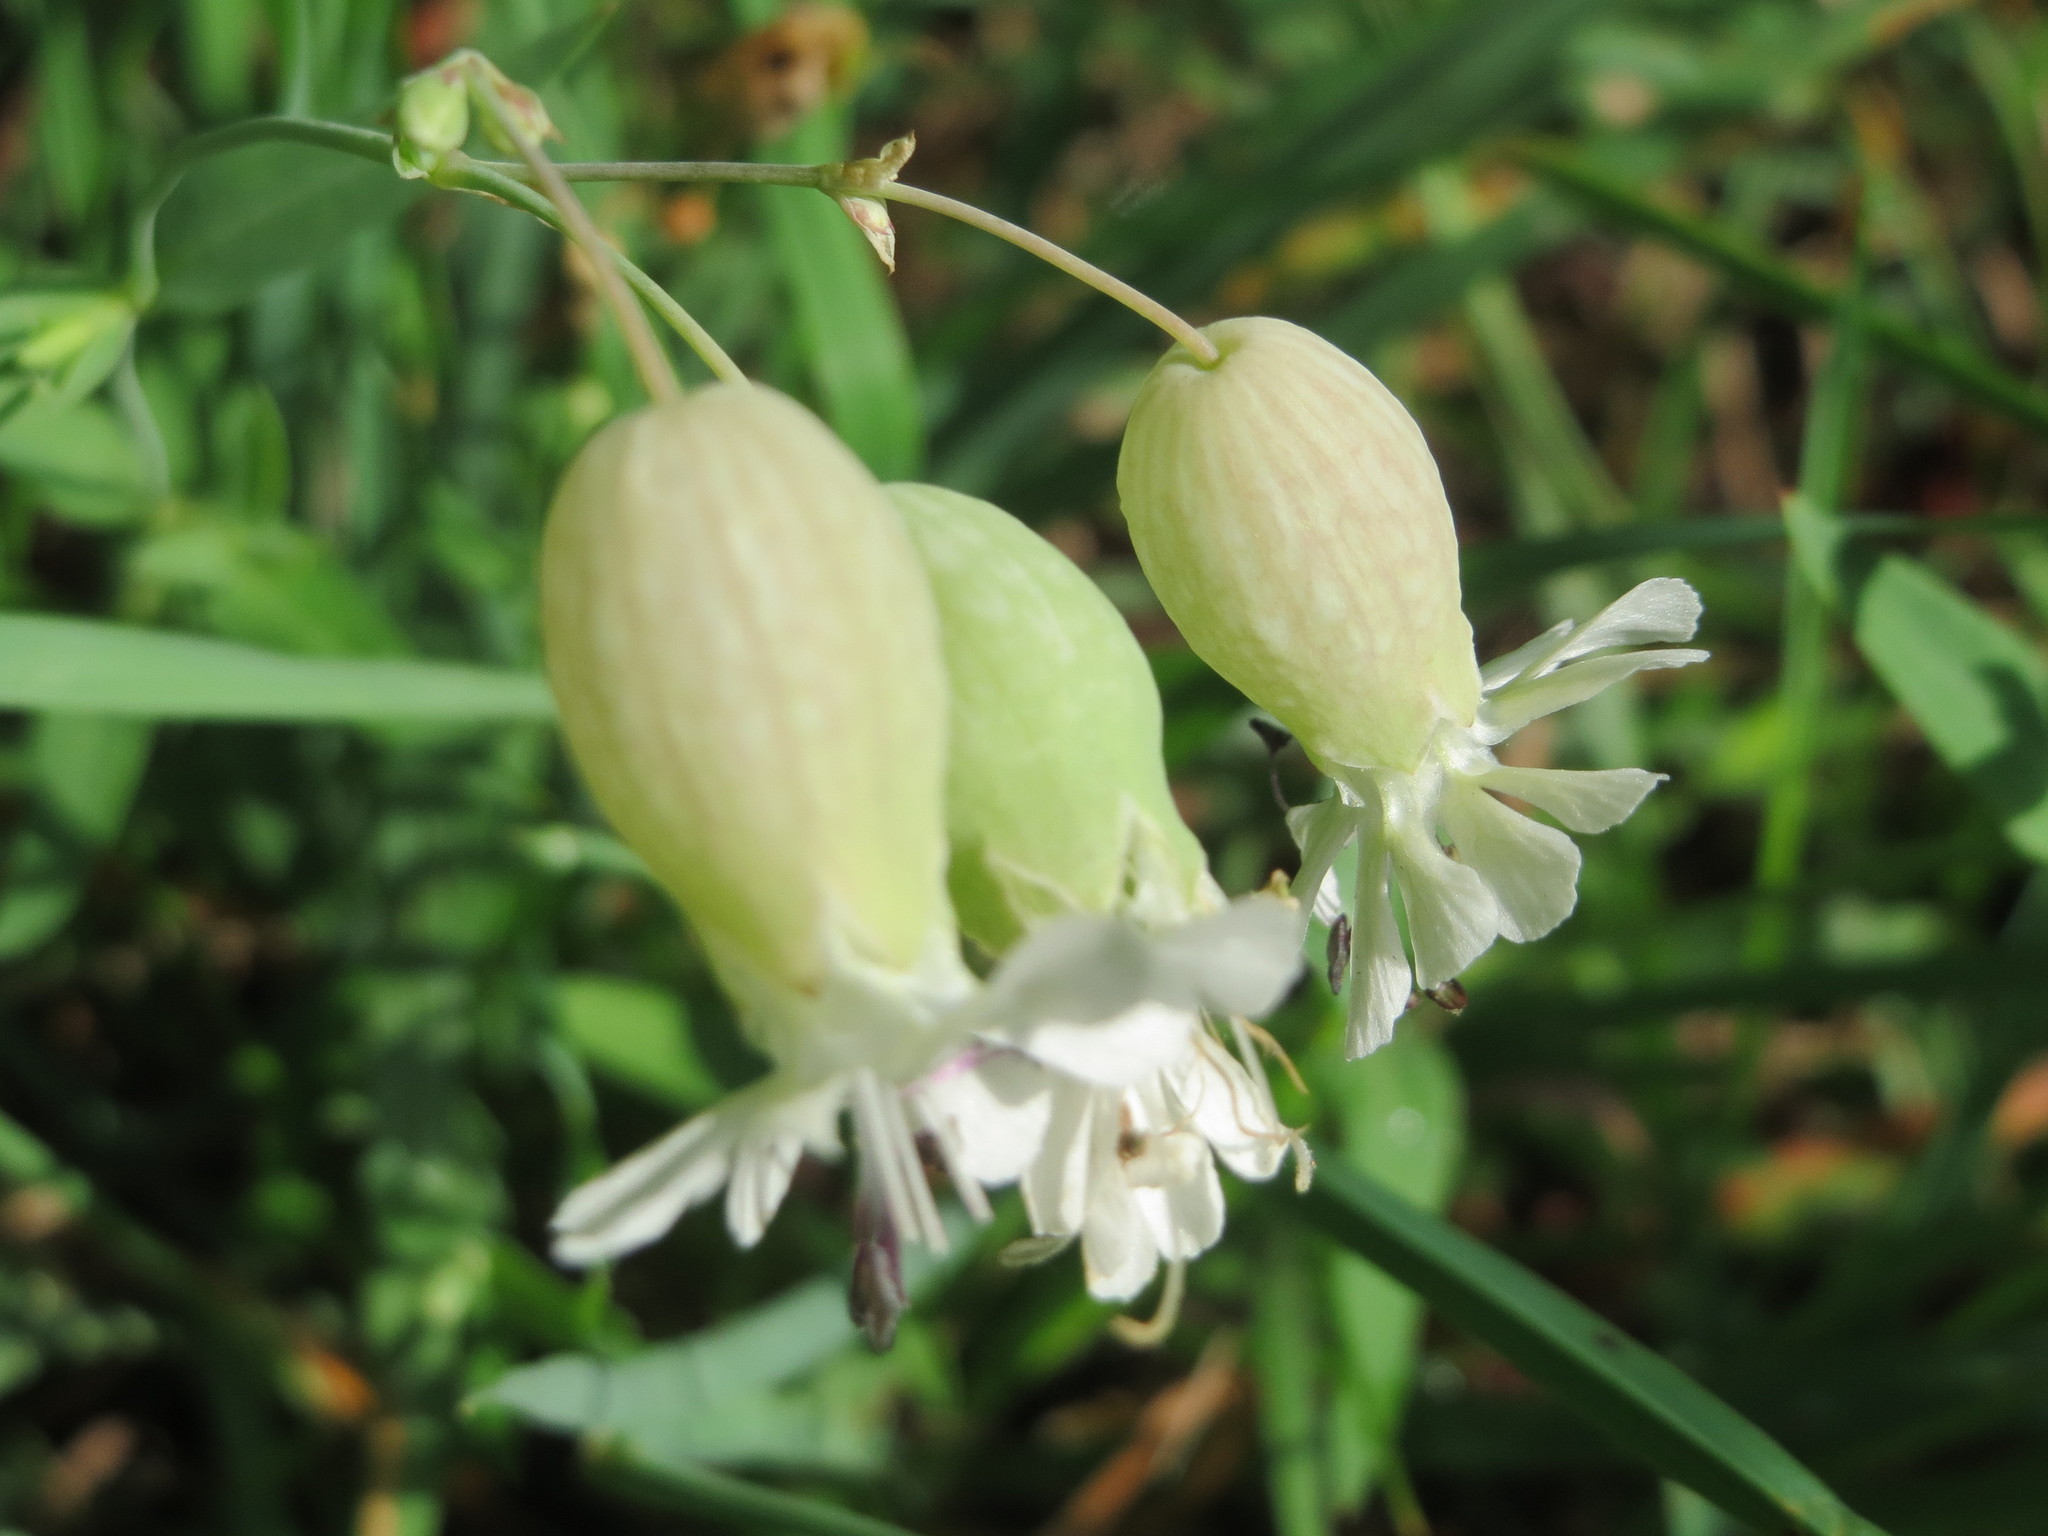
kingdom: Plantae
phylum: Tracheophyta
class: Magnoliopsida
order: Caryophyllales
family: Caryophyllaceae
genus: Silene
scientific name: Silene vulgaris
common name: Bladder campion
